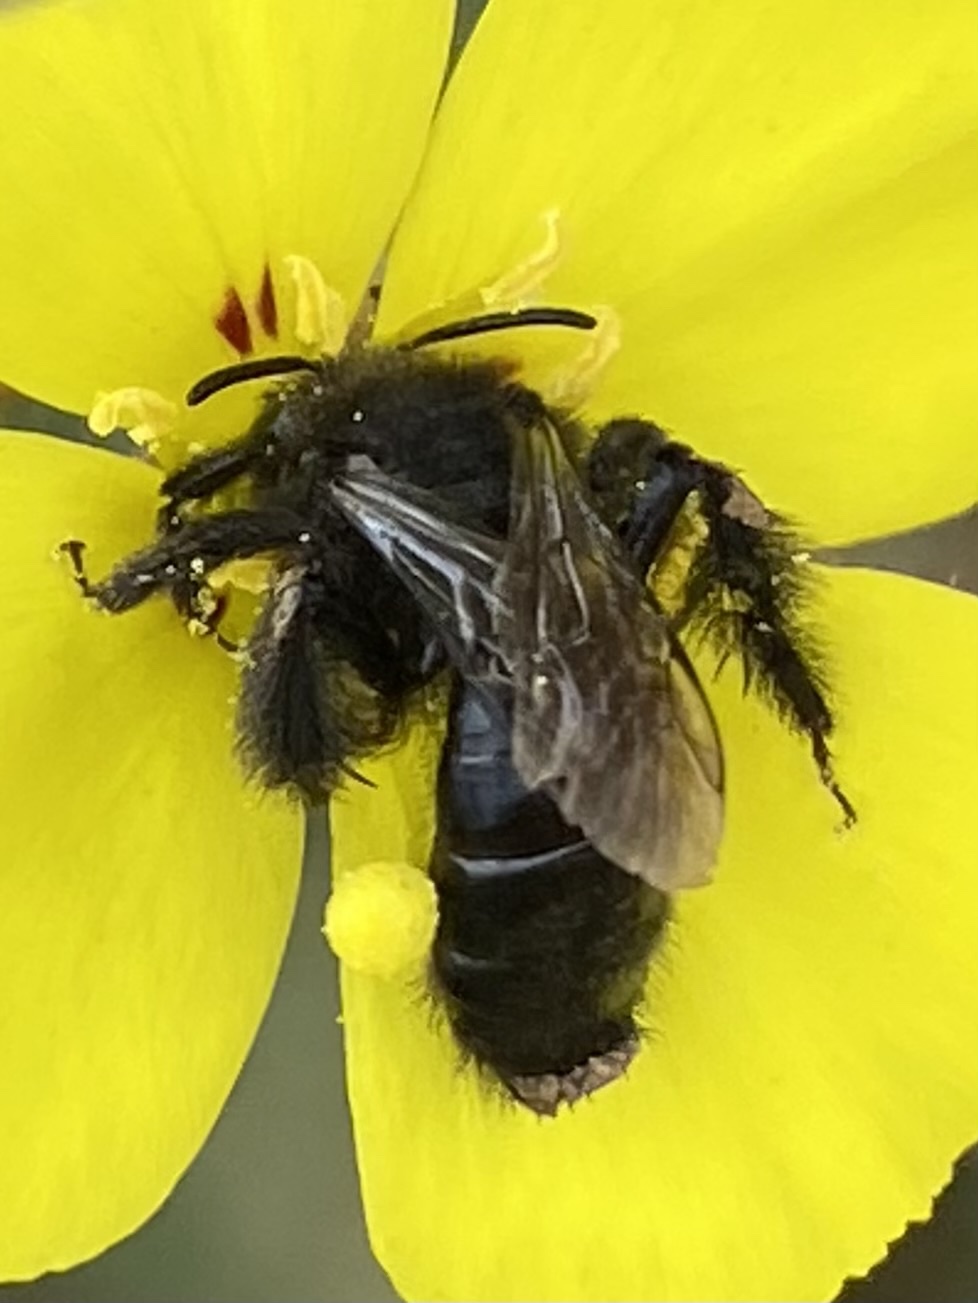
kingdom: Animalia
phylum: Arthropoda
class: Insecta
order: Hymenoptera
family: Andrenidae
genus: Andrena
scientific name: Andrena oenotherae
